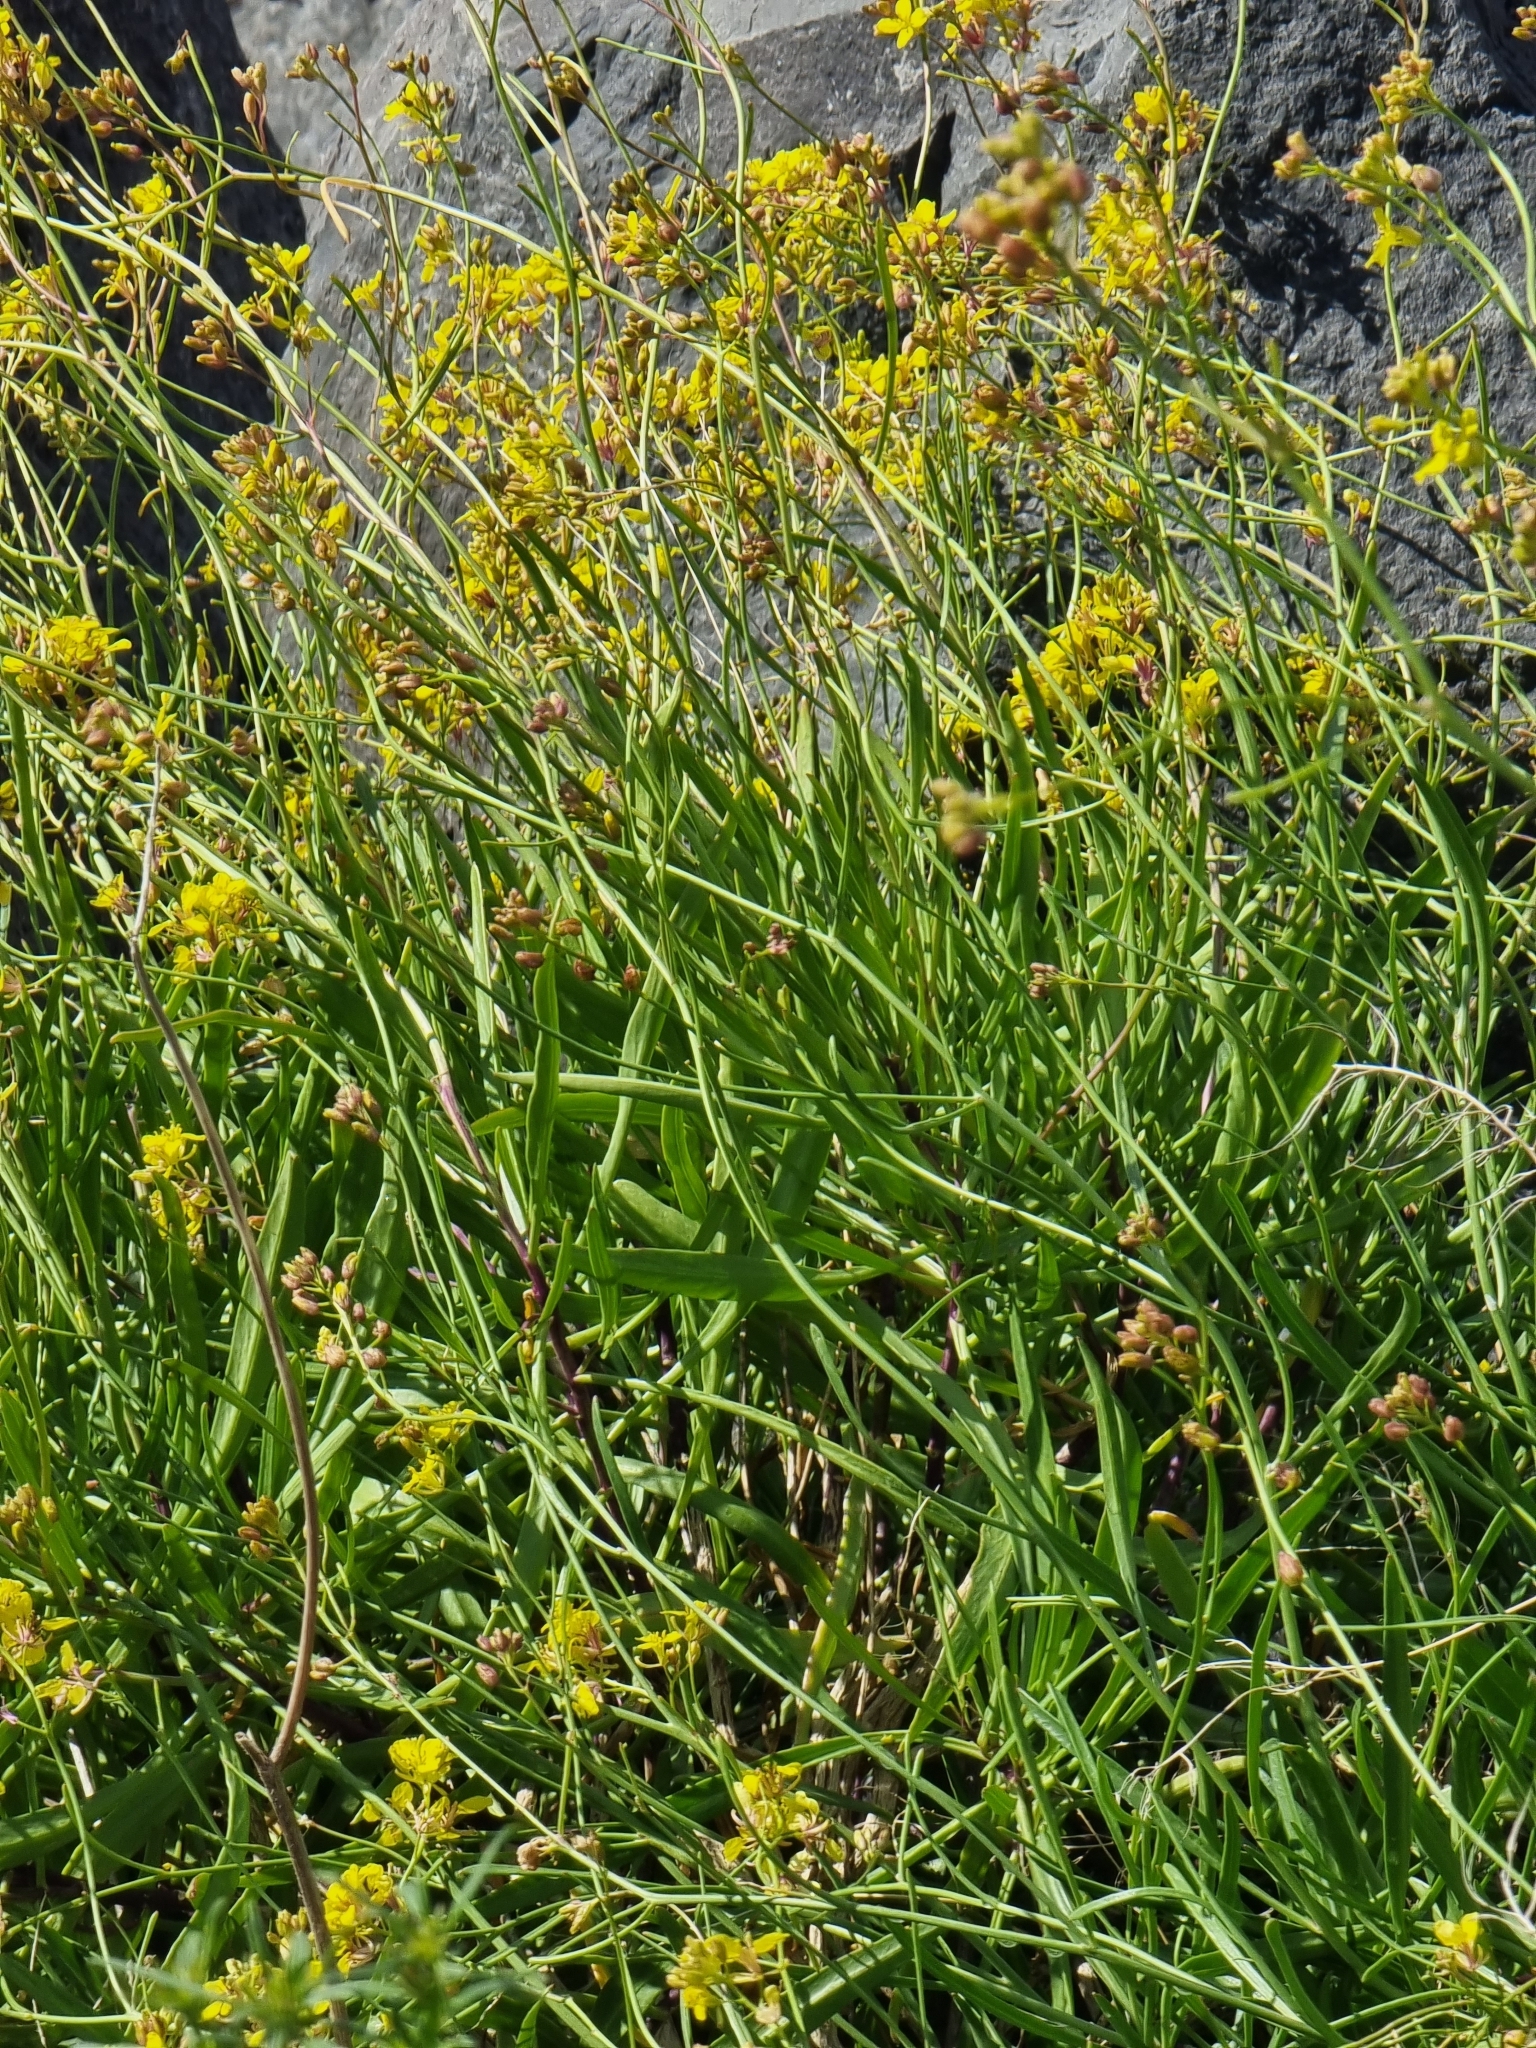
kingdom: Plantae
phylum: Tracheophyta
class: Magnoliopsida
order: Brassicales
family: Brassicaceae
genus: Sinapidendron
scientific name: Sinapidendron angustifolium
